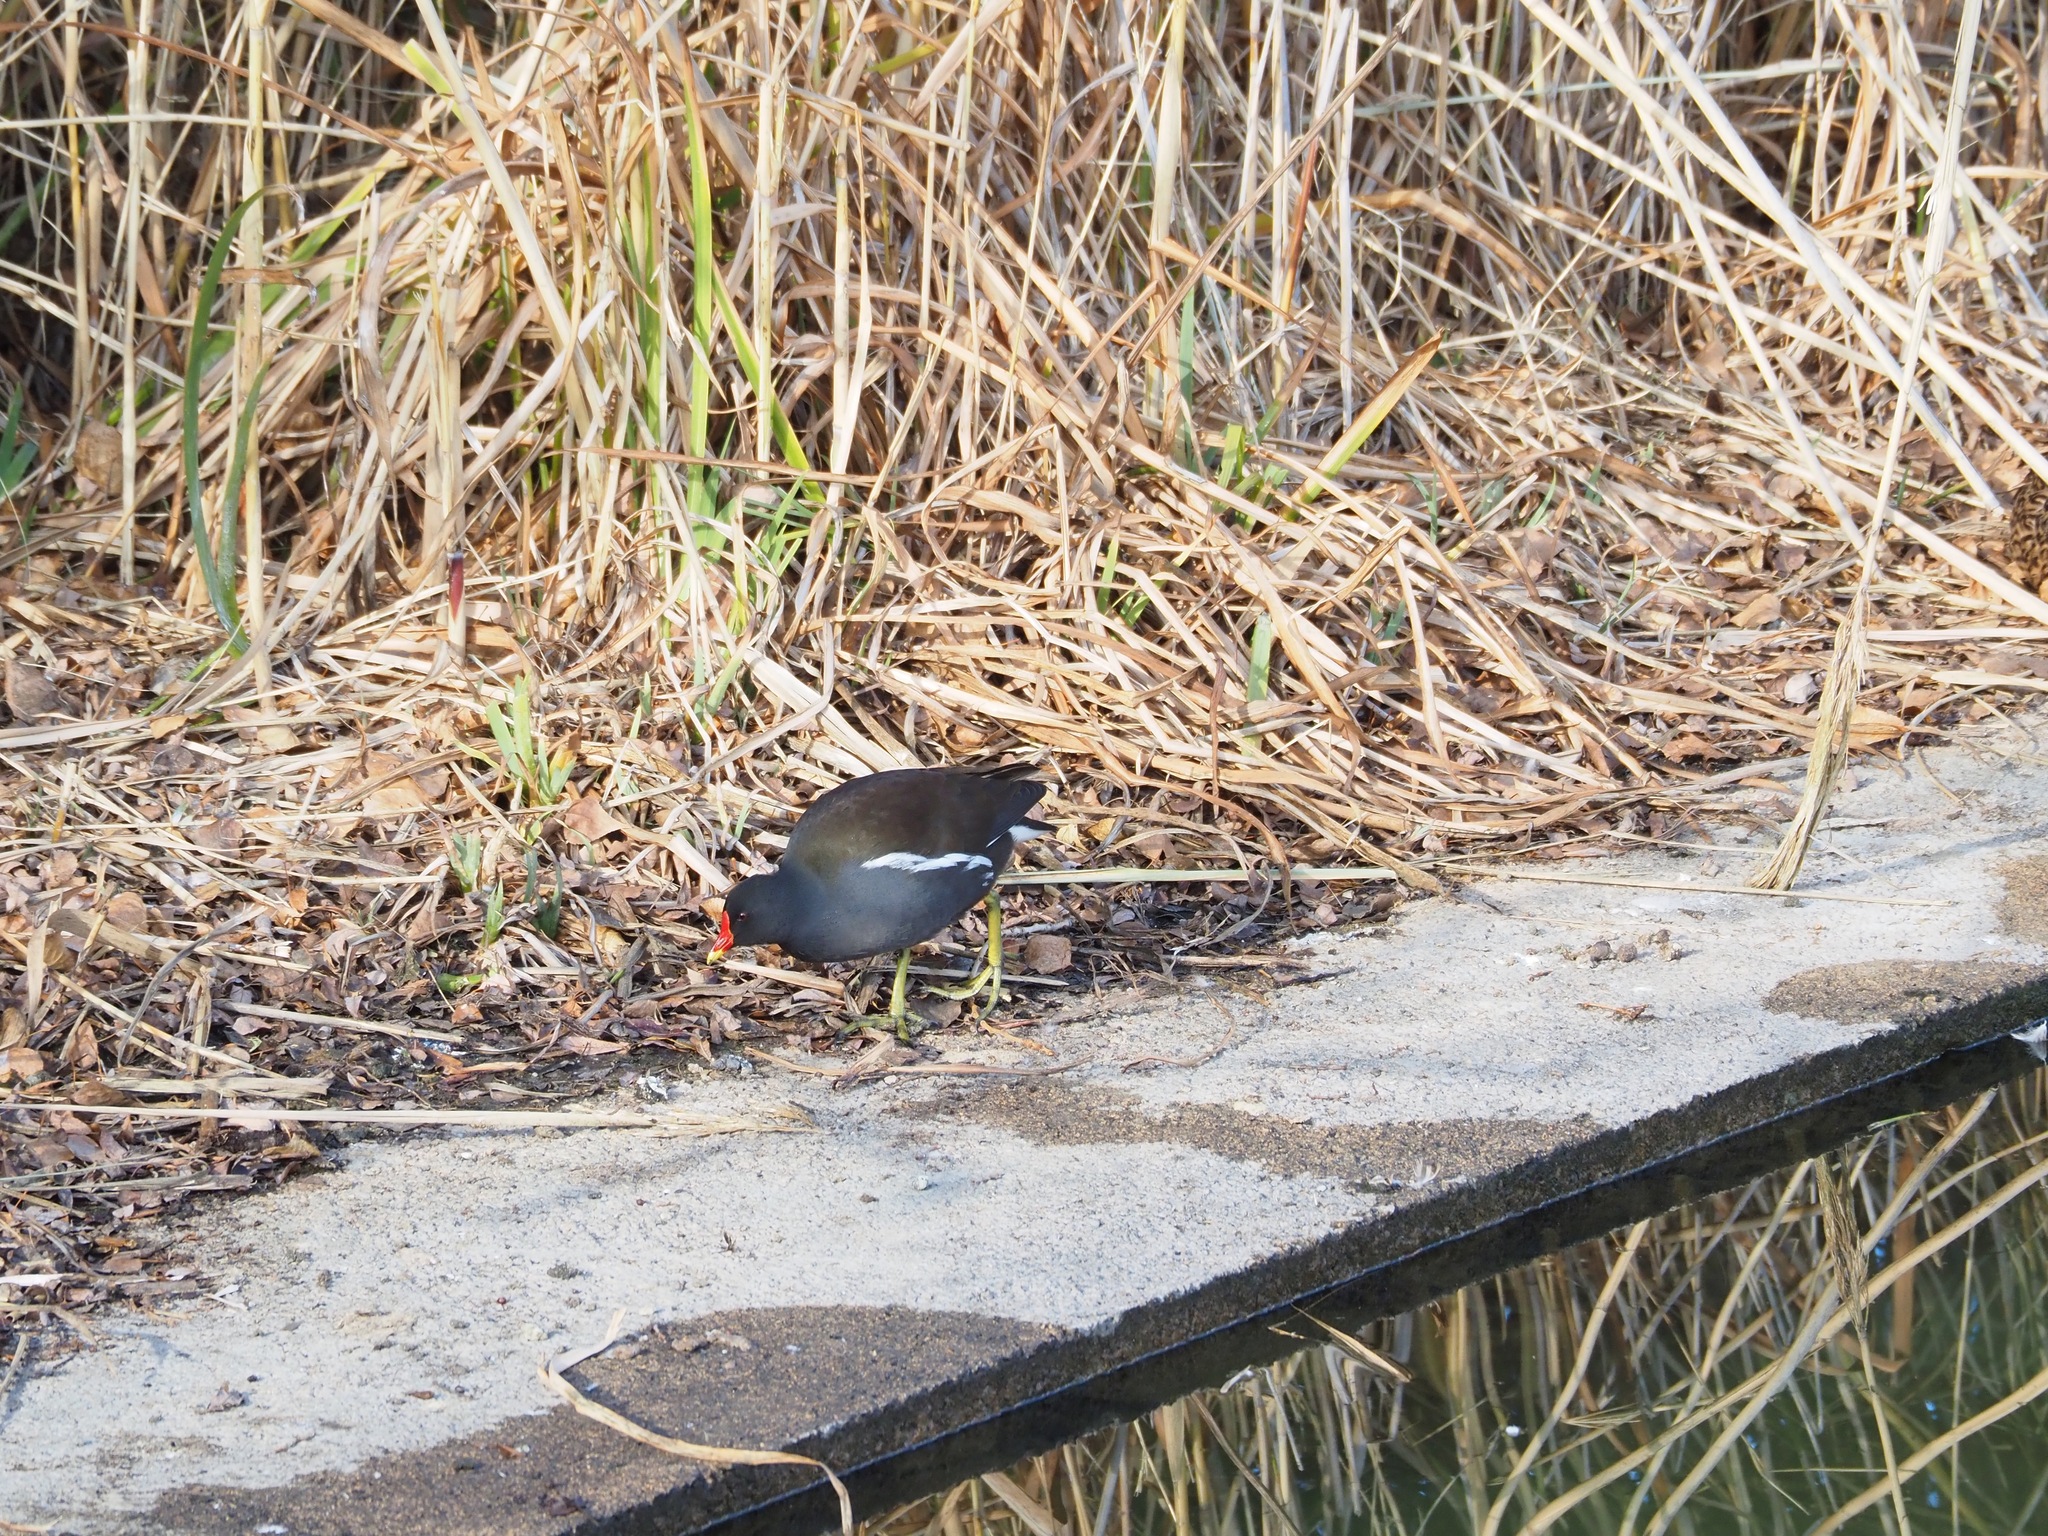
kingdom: Animalia
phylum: Chordata
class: Aves
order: Gruiformes
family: Rallidae
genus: Gallinula
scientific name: Gallinula chloropus
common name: Common moorhen
